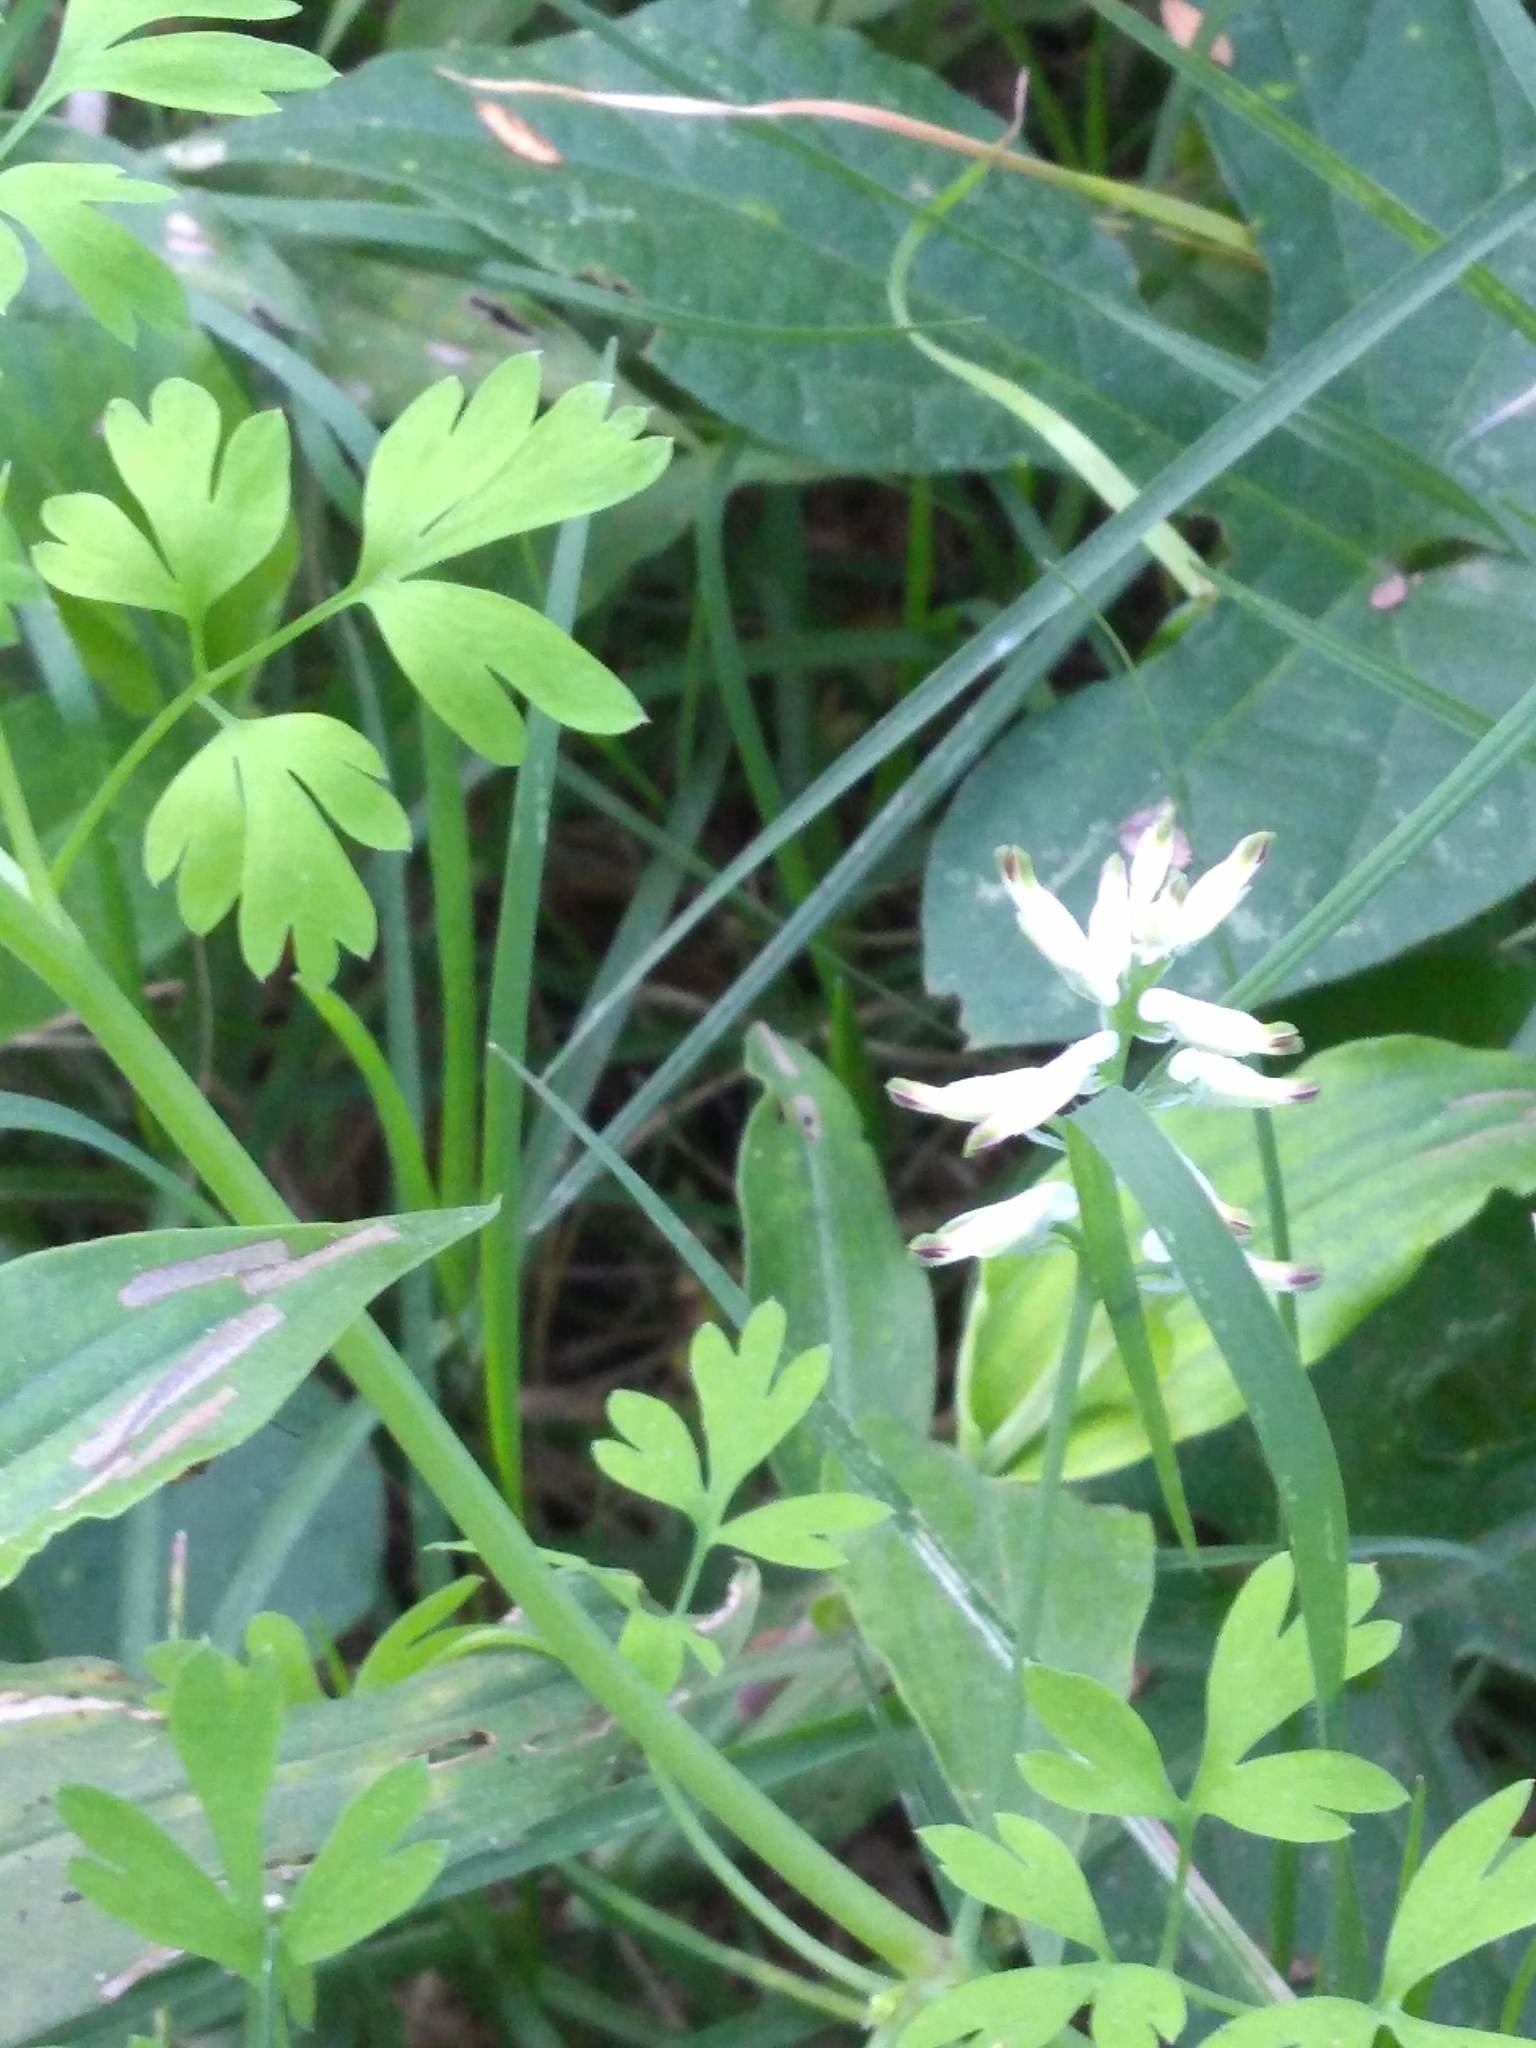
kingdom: Plantae
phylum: Tracheophyta
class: Magnoliopsida
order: Ranunculales
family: Papaveraceae
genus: Fumaria
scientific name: Fumaria capreolata
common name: White ramping-fumitory
